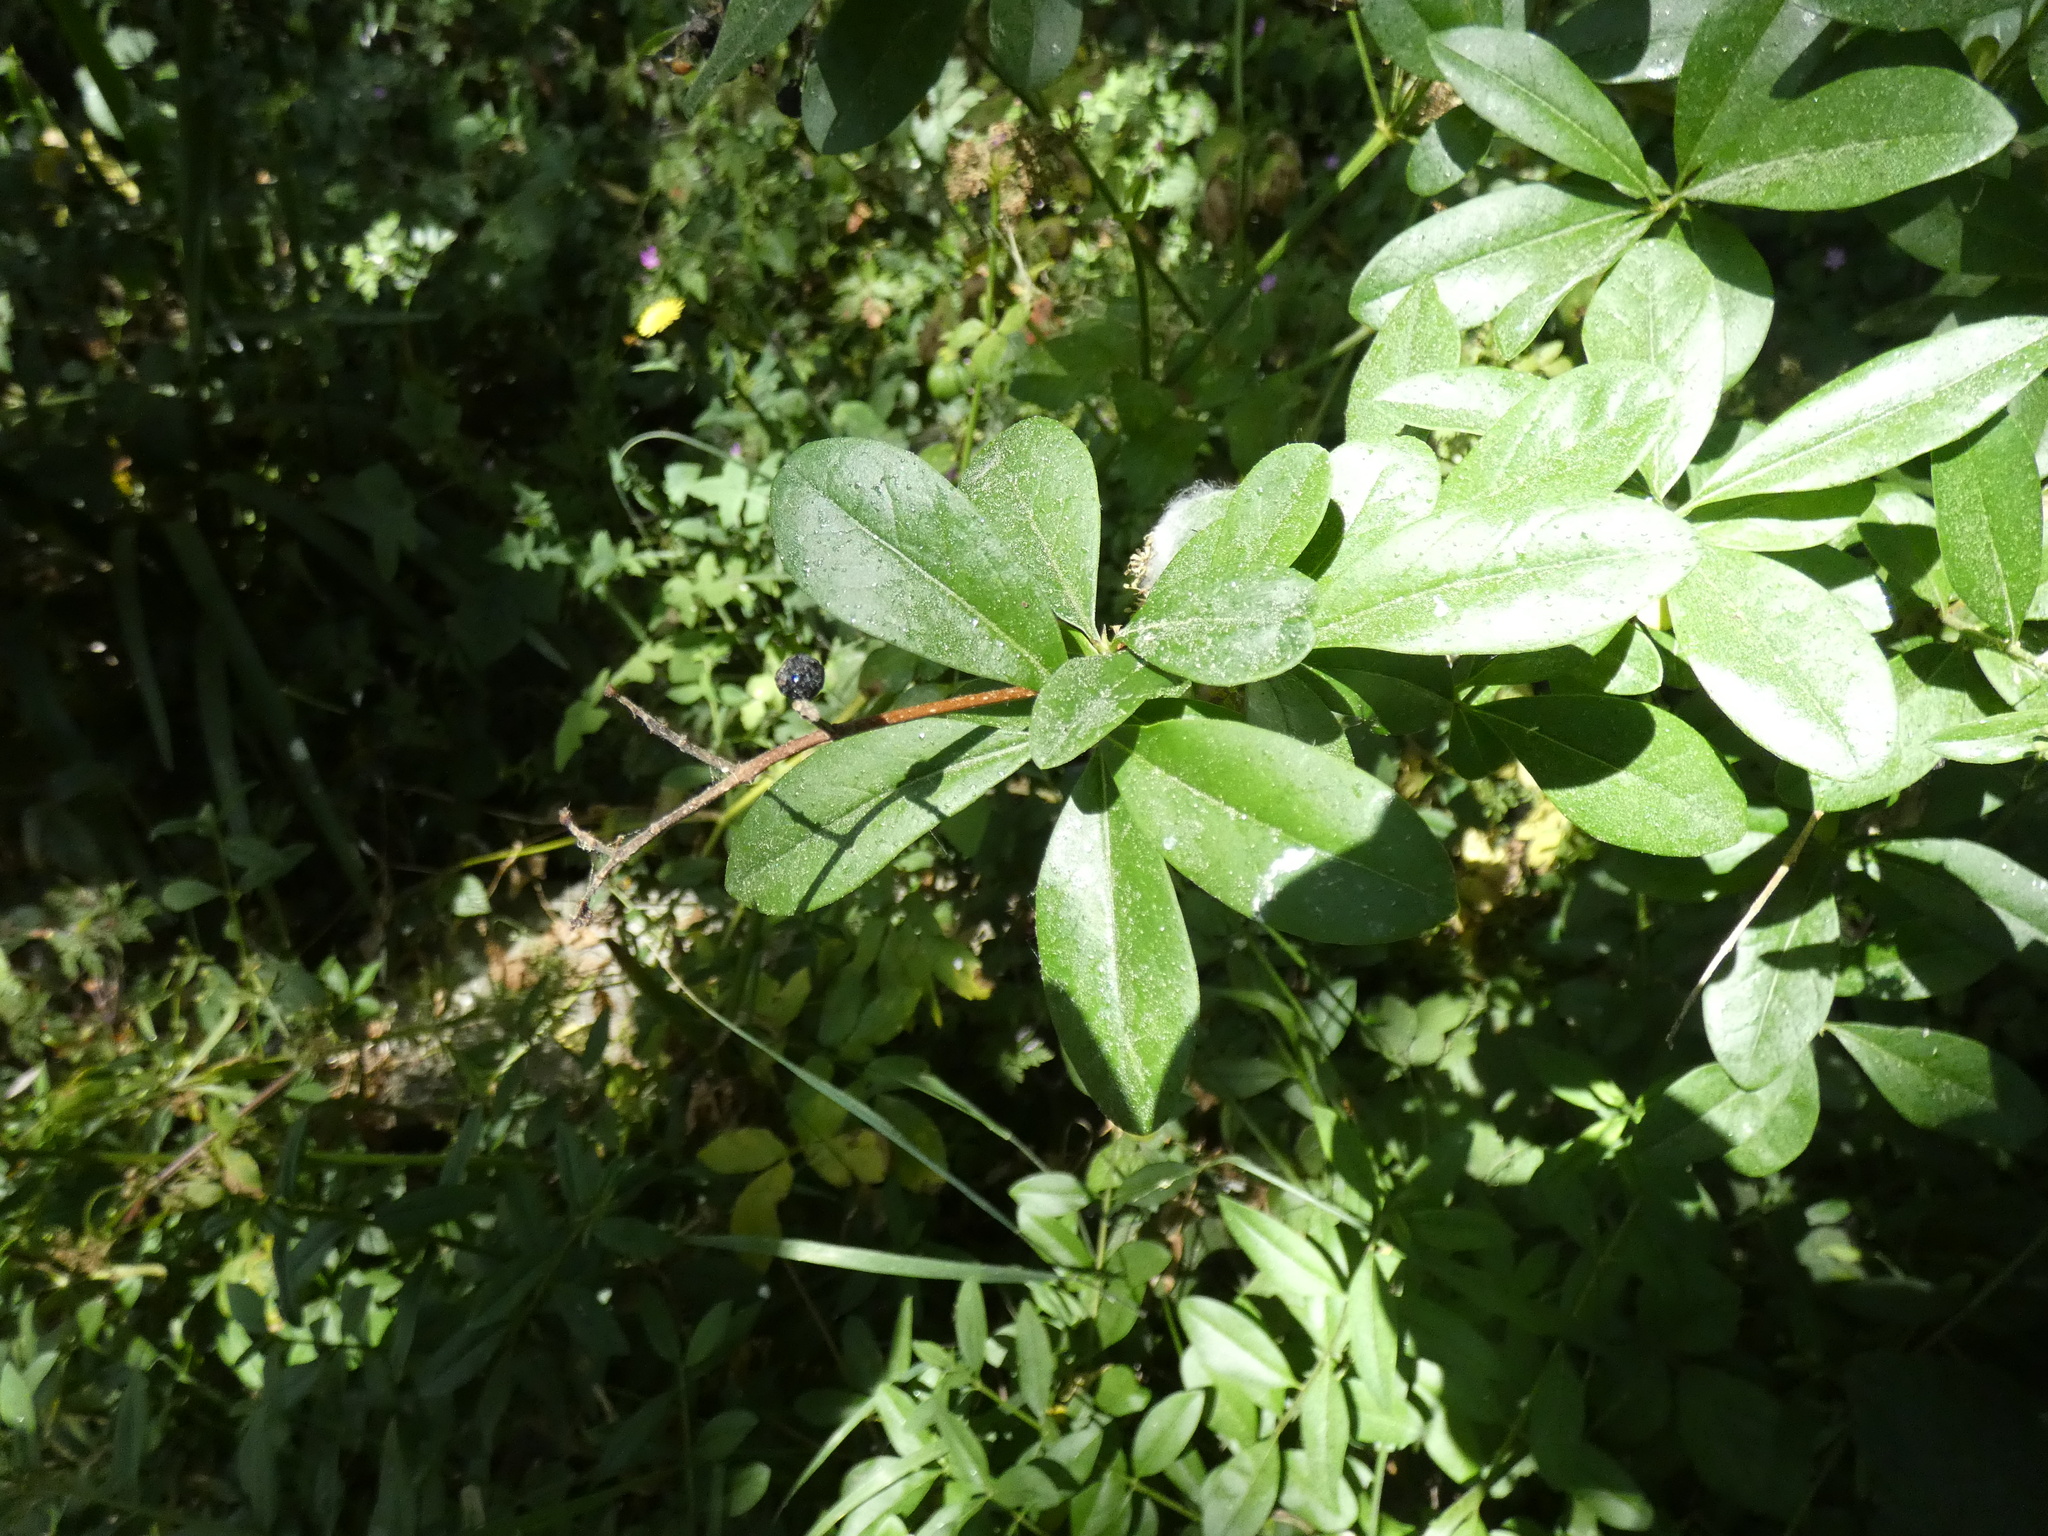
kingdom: Plantae
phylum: Tracheophyta
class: Magnoliopsida
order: Lamiales
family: Oleaceae
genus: Ligustrum
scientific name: Ligustrum vulgare
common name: Wild privet
